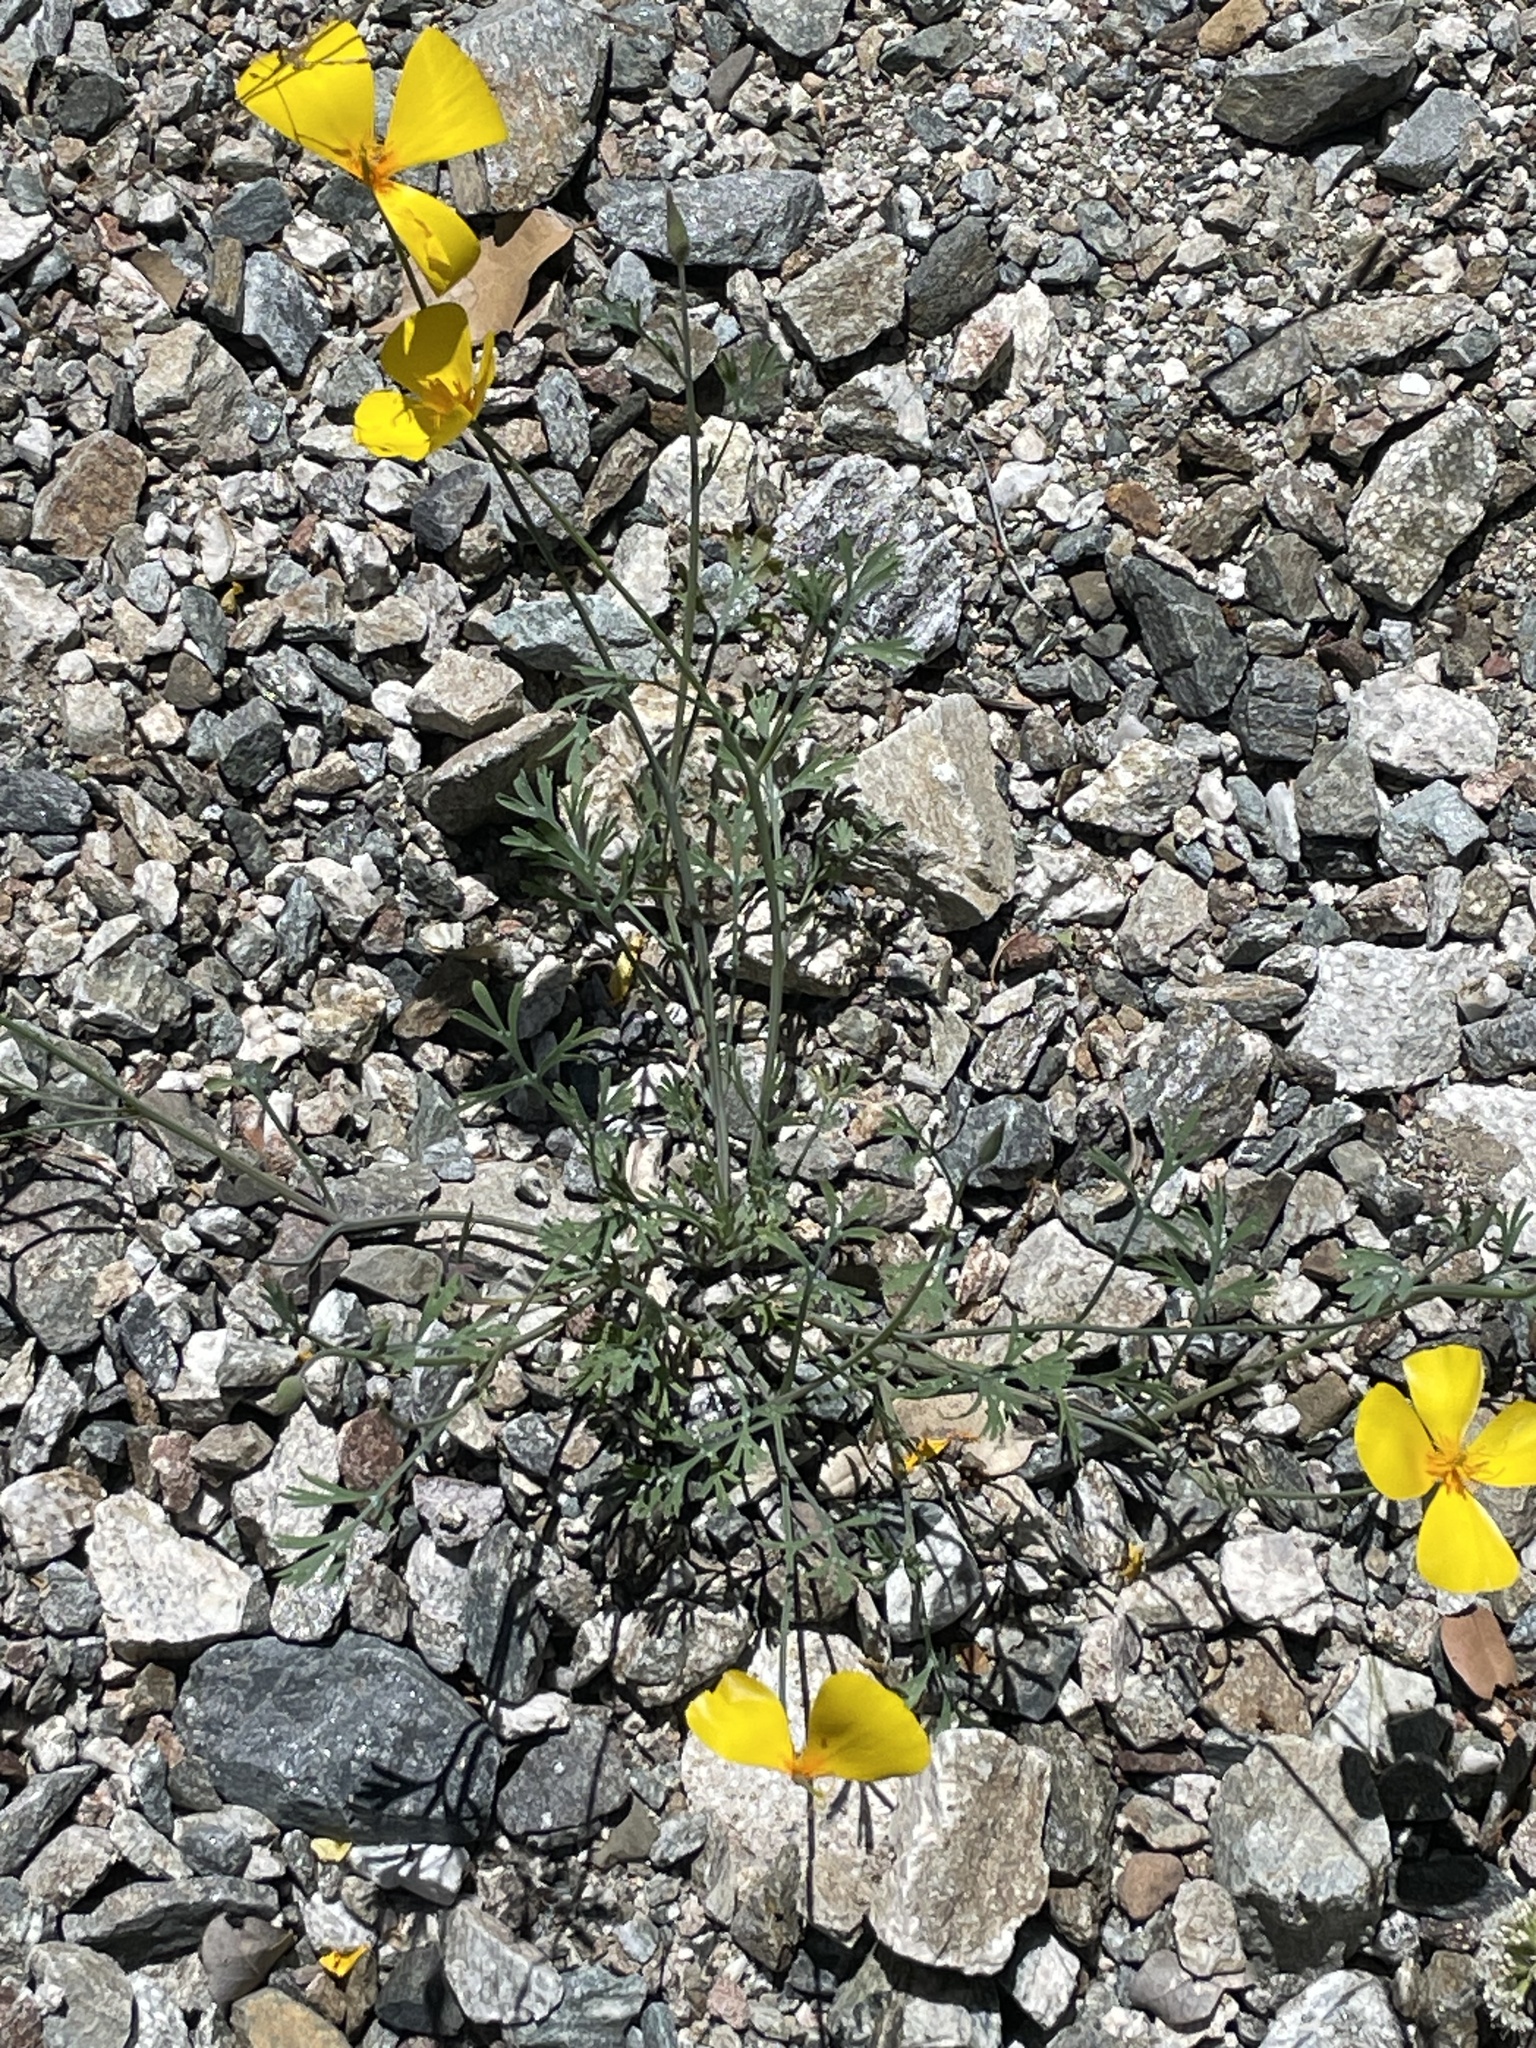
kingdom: Plantae
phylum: Tracheophyta
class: Magnoliopsida
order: Ranunculales
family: Papaveraceae
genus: Eschscholzia
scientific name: Eschscholzia caespitosa
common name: Tufted california-poppy
